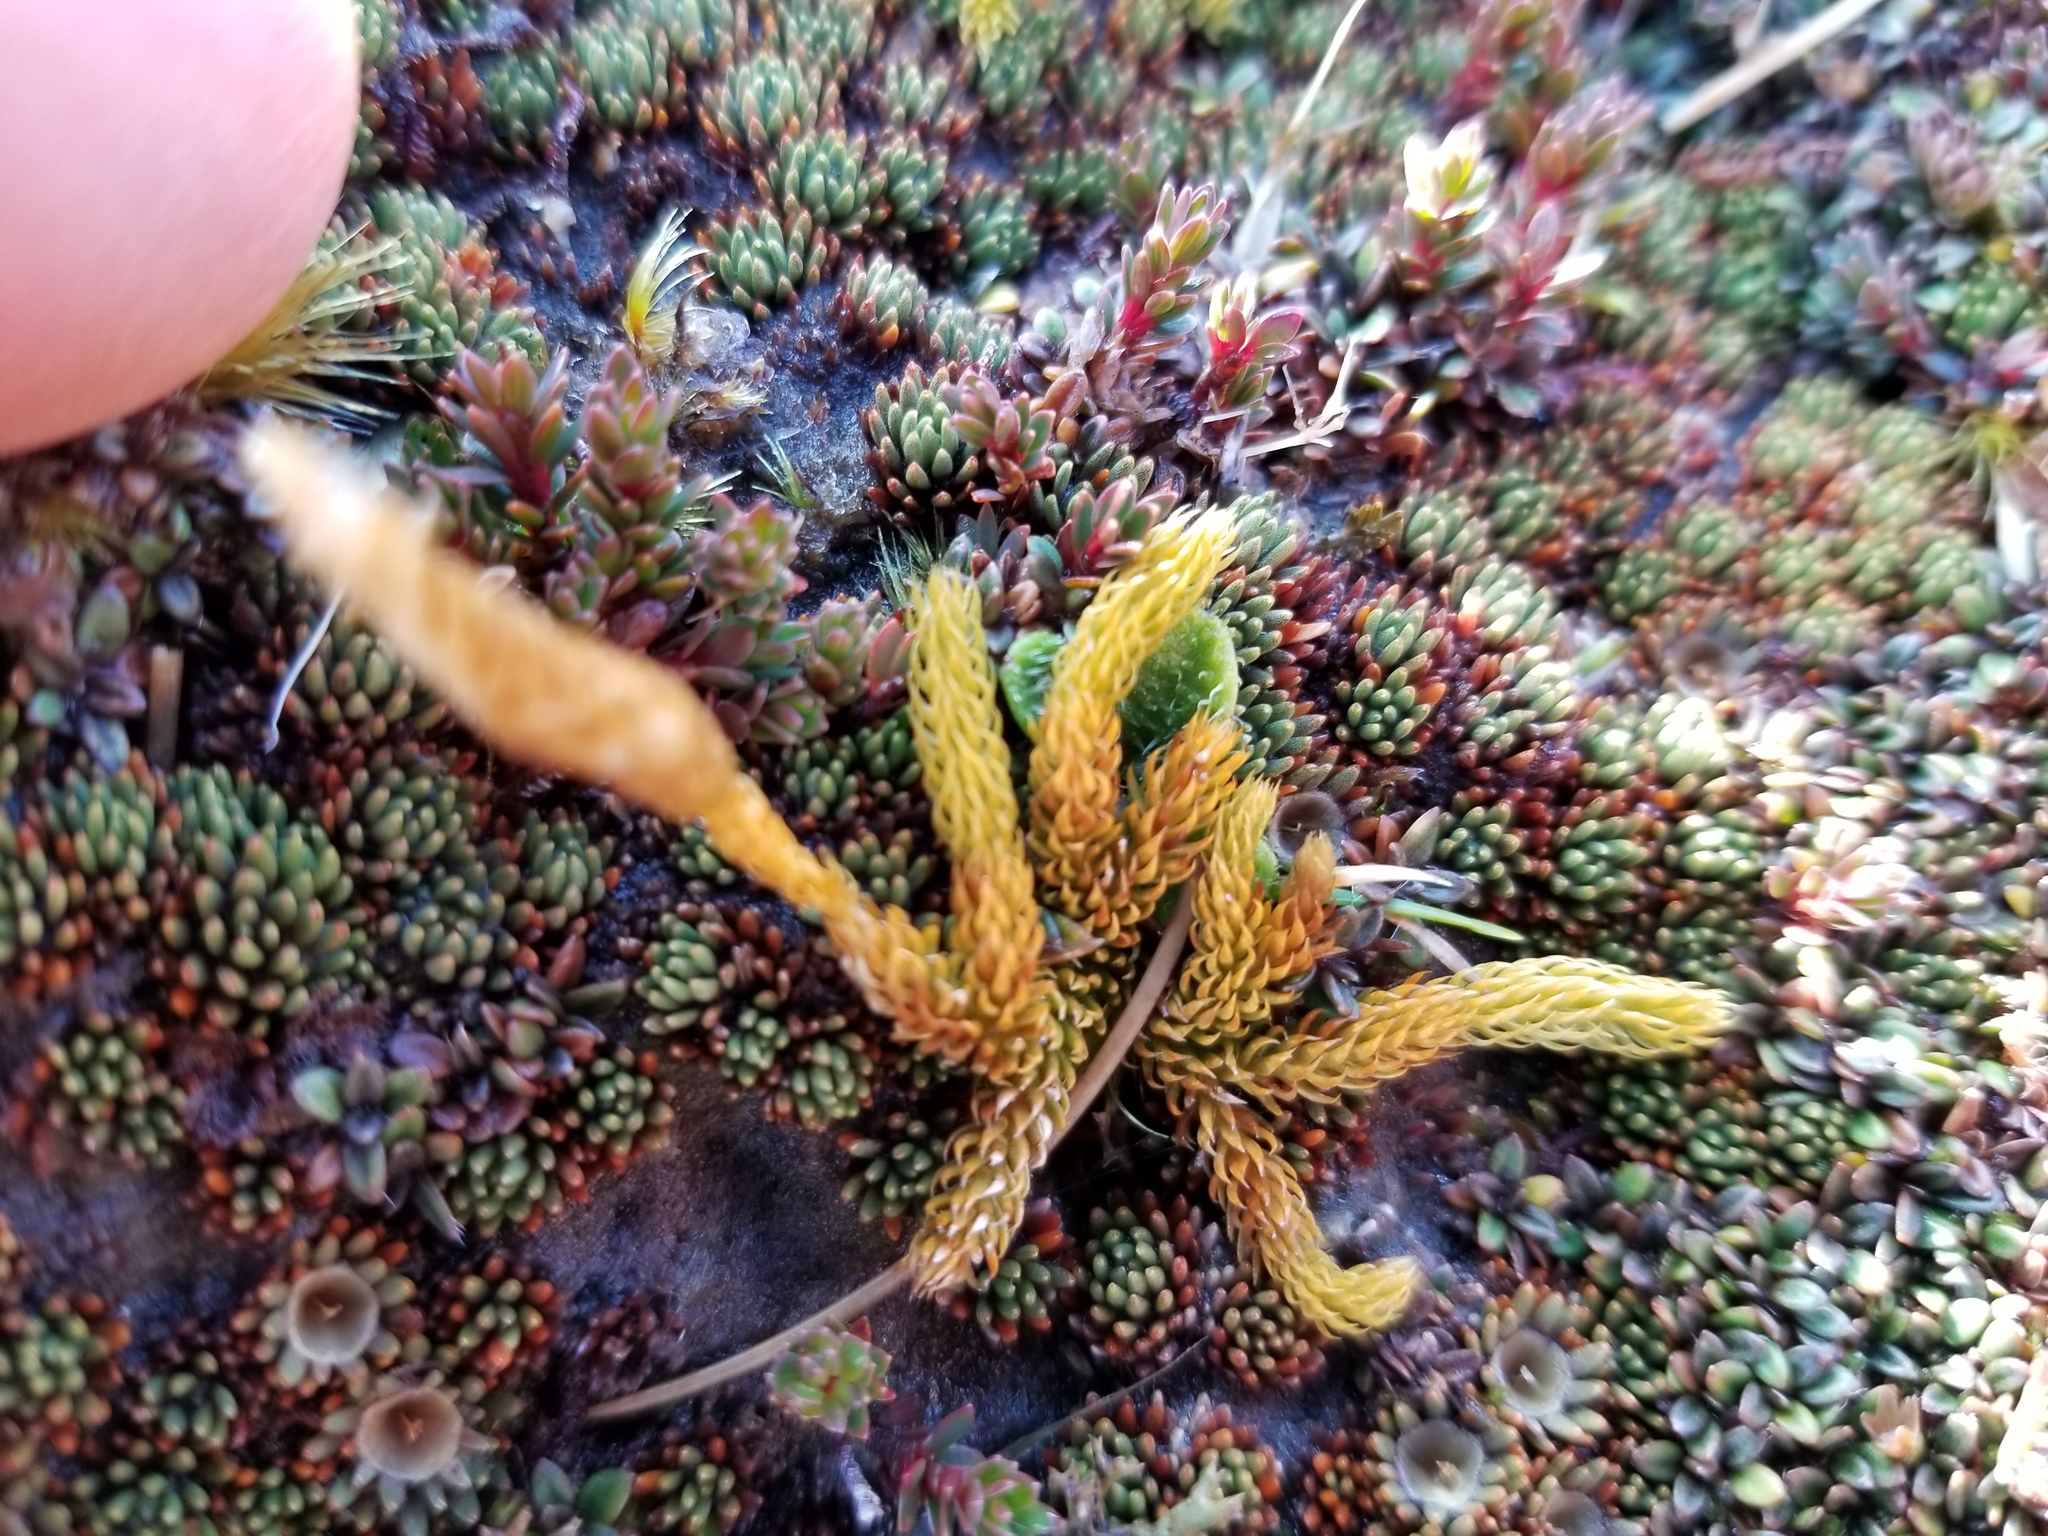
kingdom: Plantae
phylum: Tracheophyta
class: Lycopodiopsida
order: Lycopodiales
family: Lycopodiaceae
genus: Austrolycopodium
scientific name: Austrolycopodium fastigiatum
